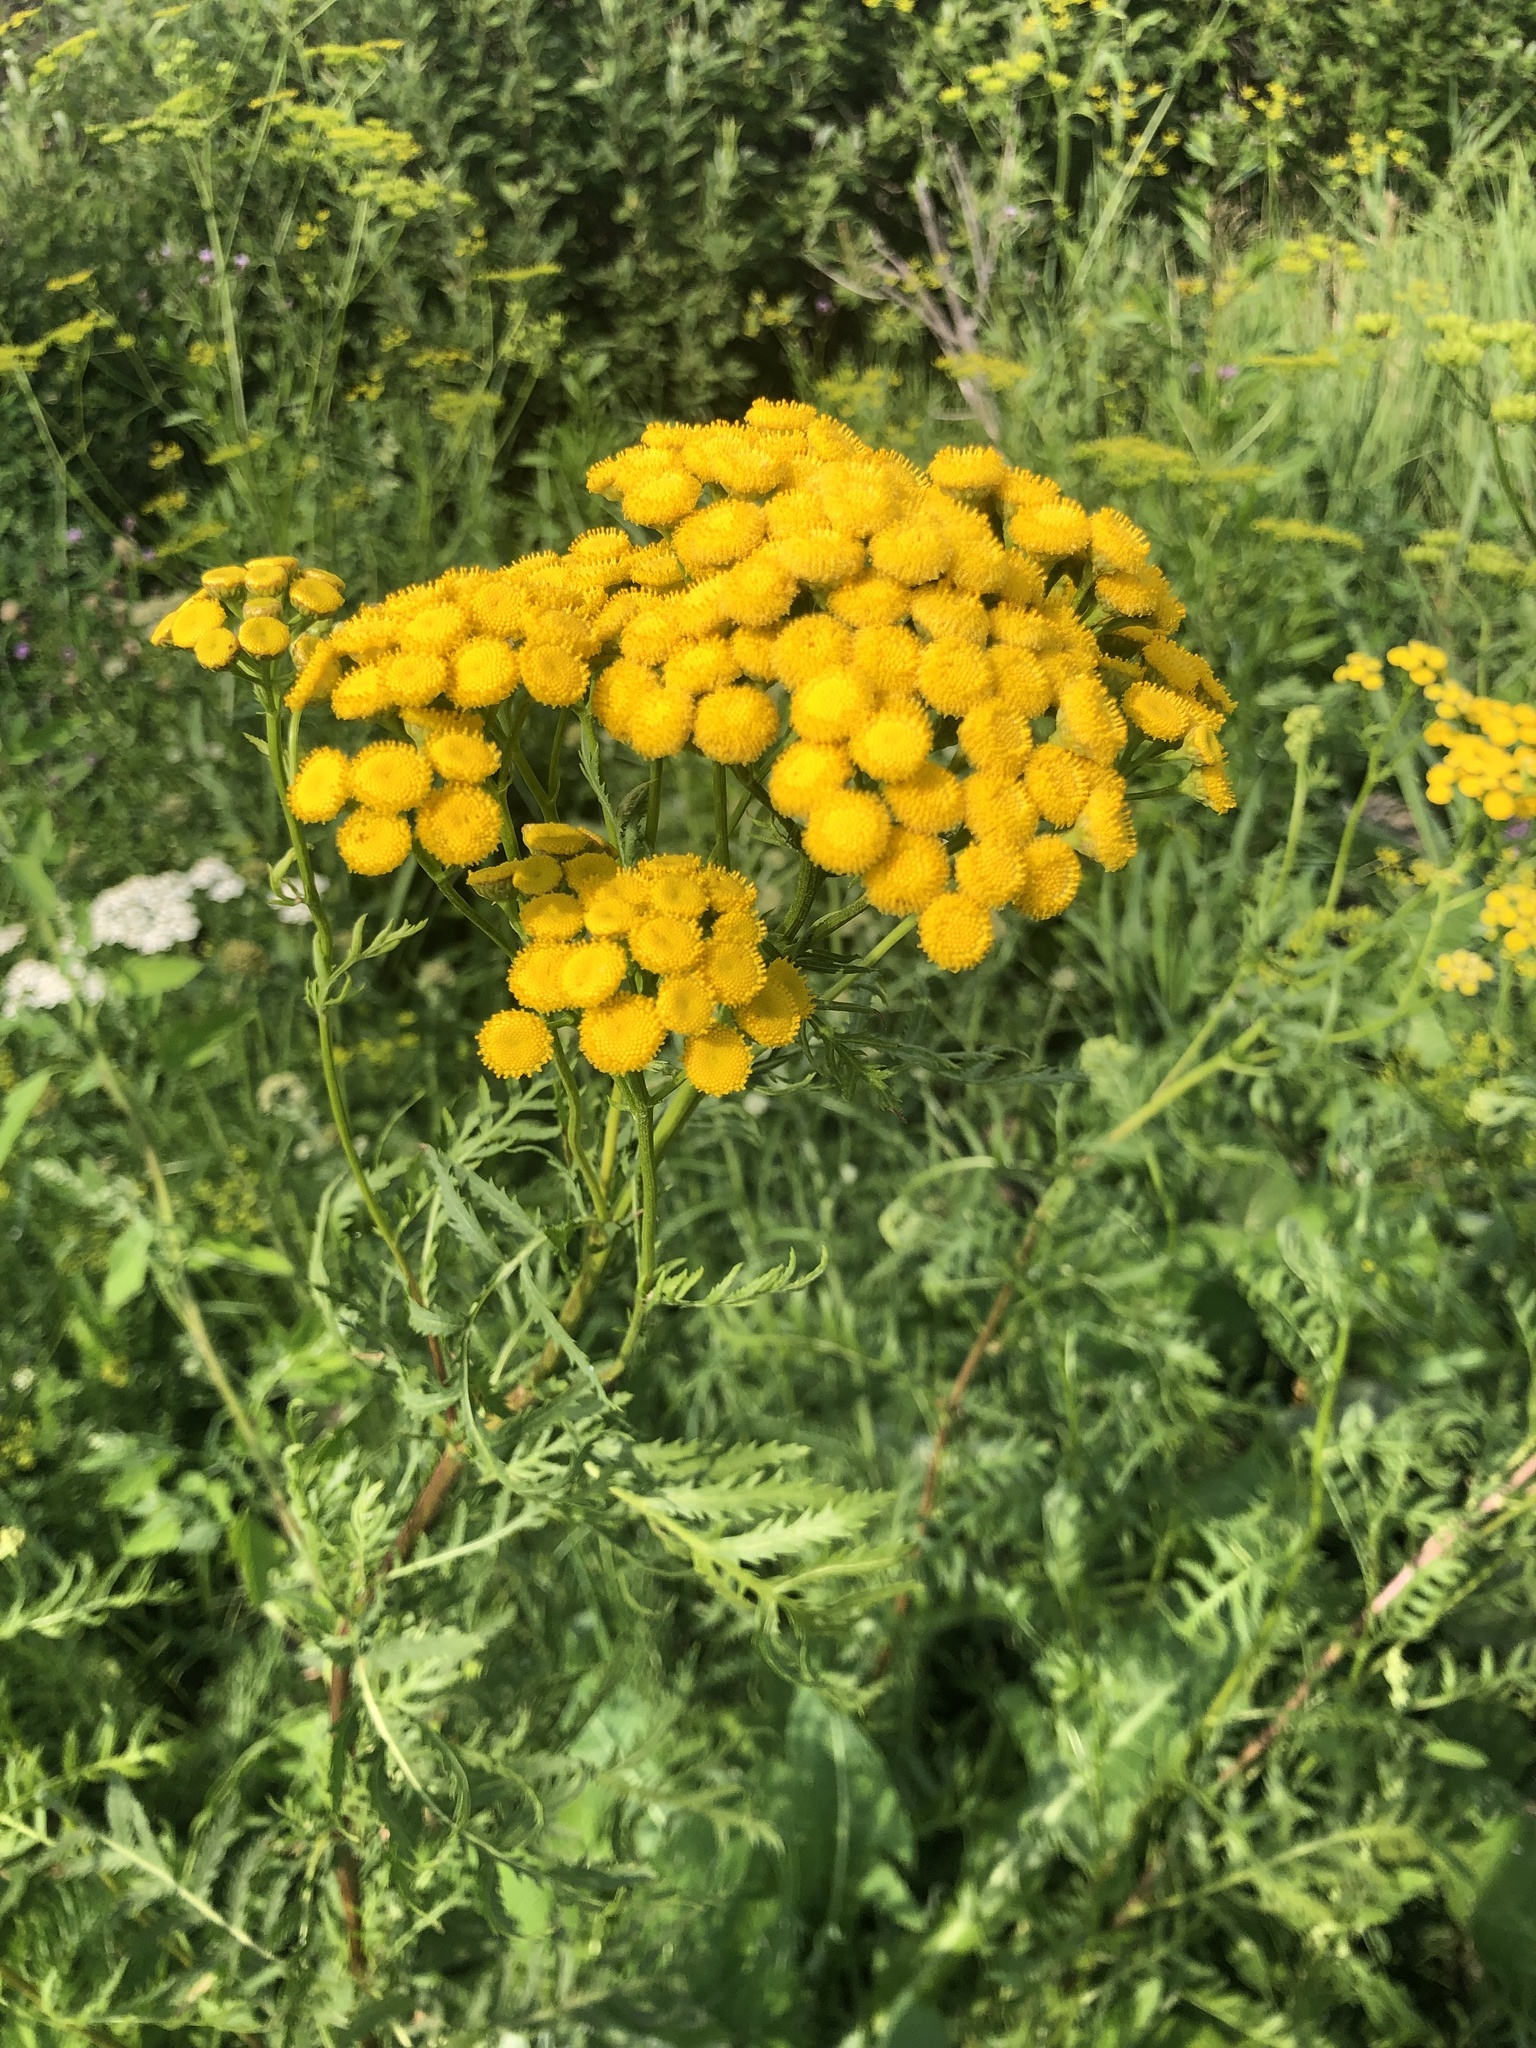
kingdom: Plantae
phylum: Tracheophyta
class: Magnoliopsida
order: Asterales
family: Asteraceae
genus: Tanacetum
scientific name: Tanacetum vulgare
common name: Common tansy
